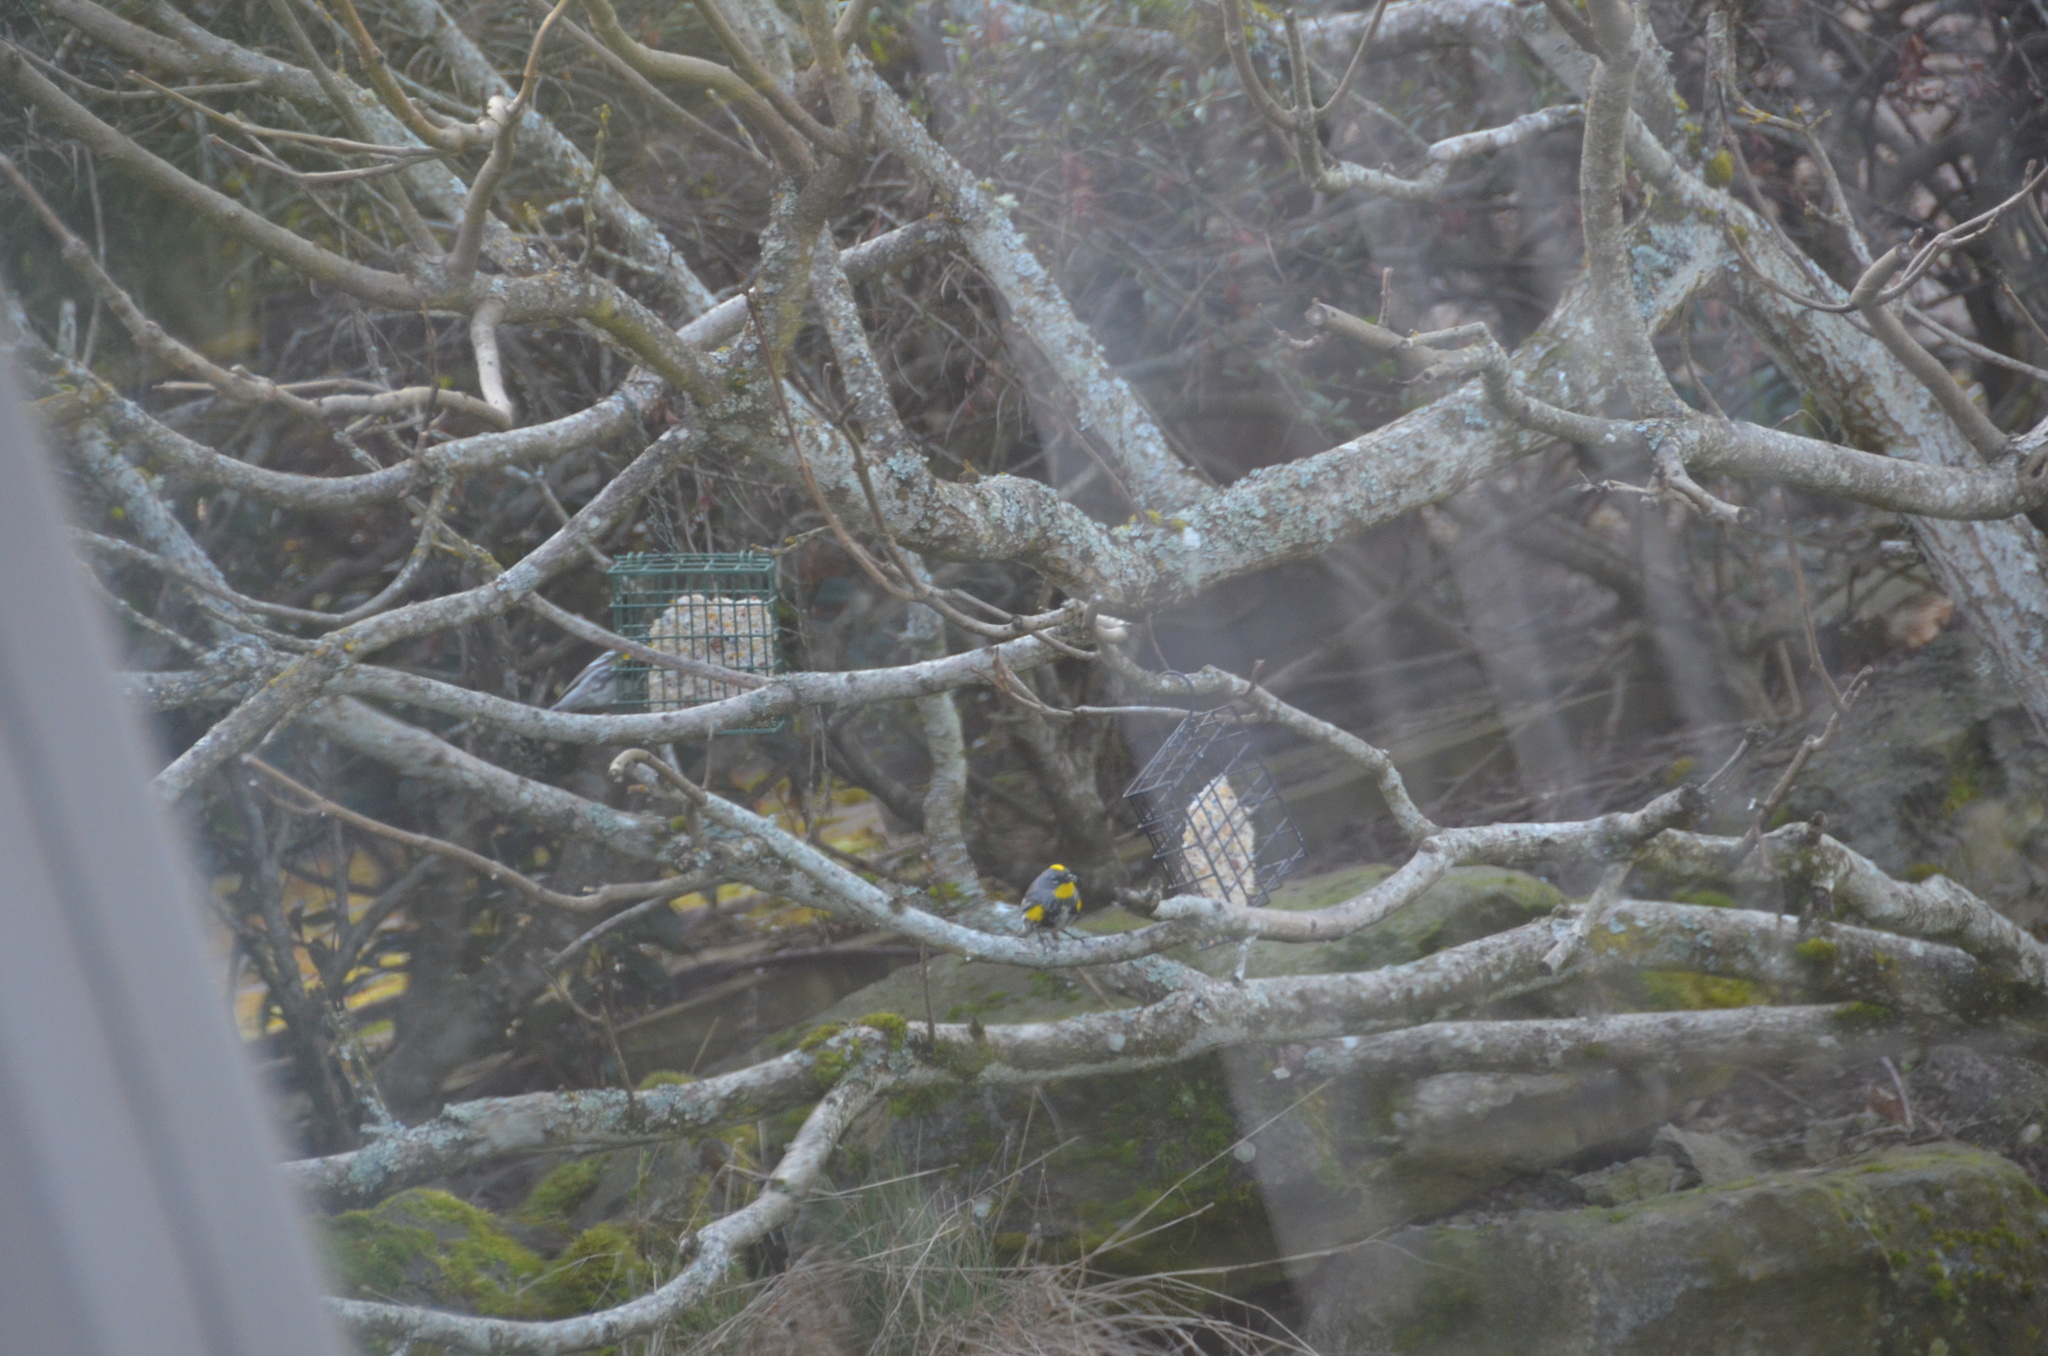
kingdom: Animalia
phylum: Chordata
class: Aves
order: Passeriformes
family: Parulidae
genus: Setophaga
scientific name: Setophaga auduboni
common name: Audubon's warbler
